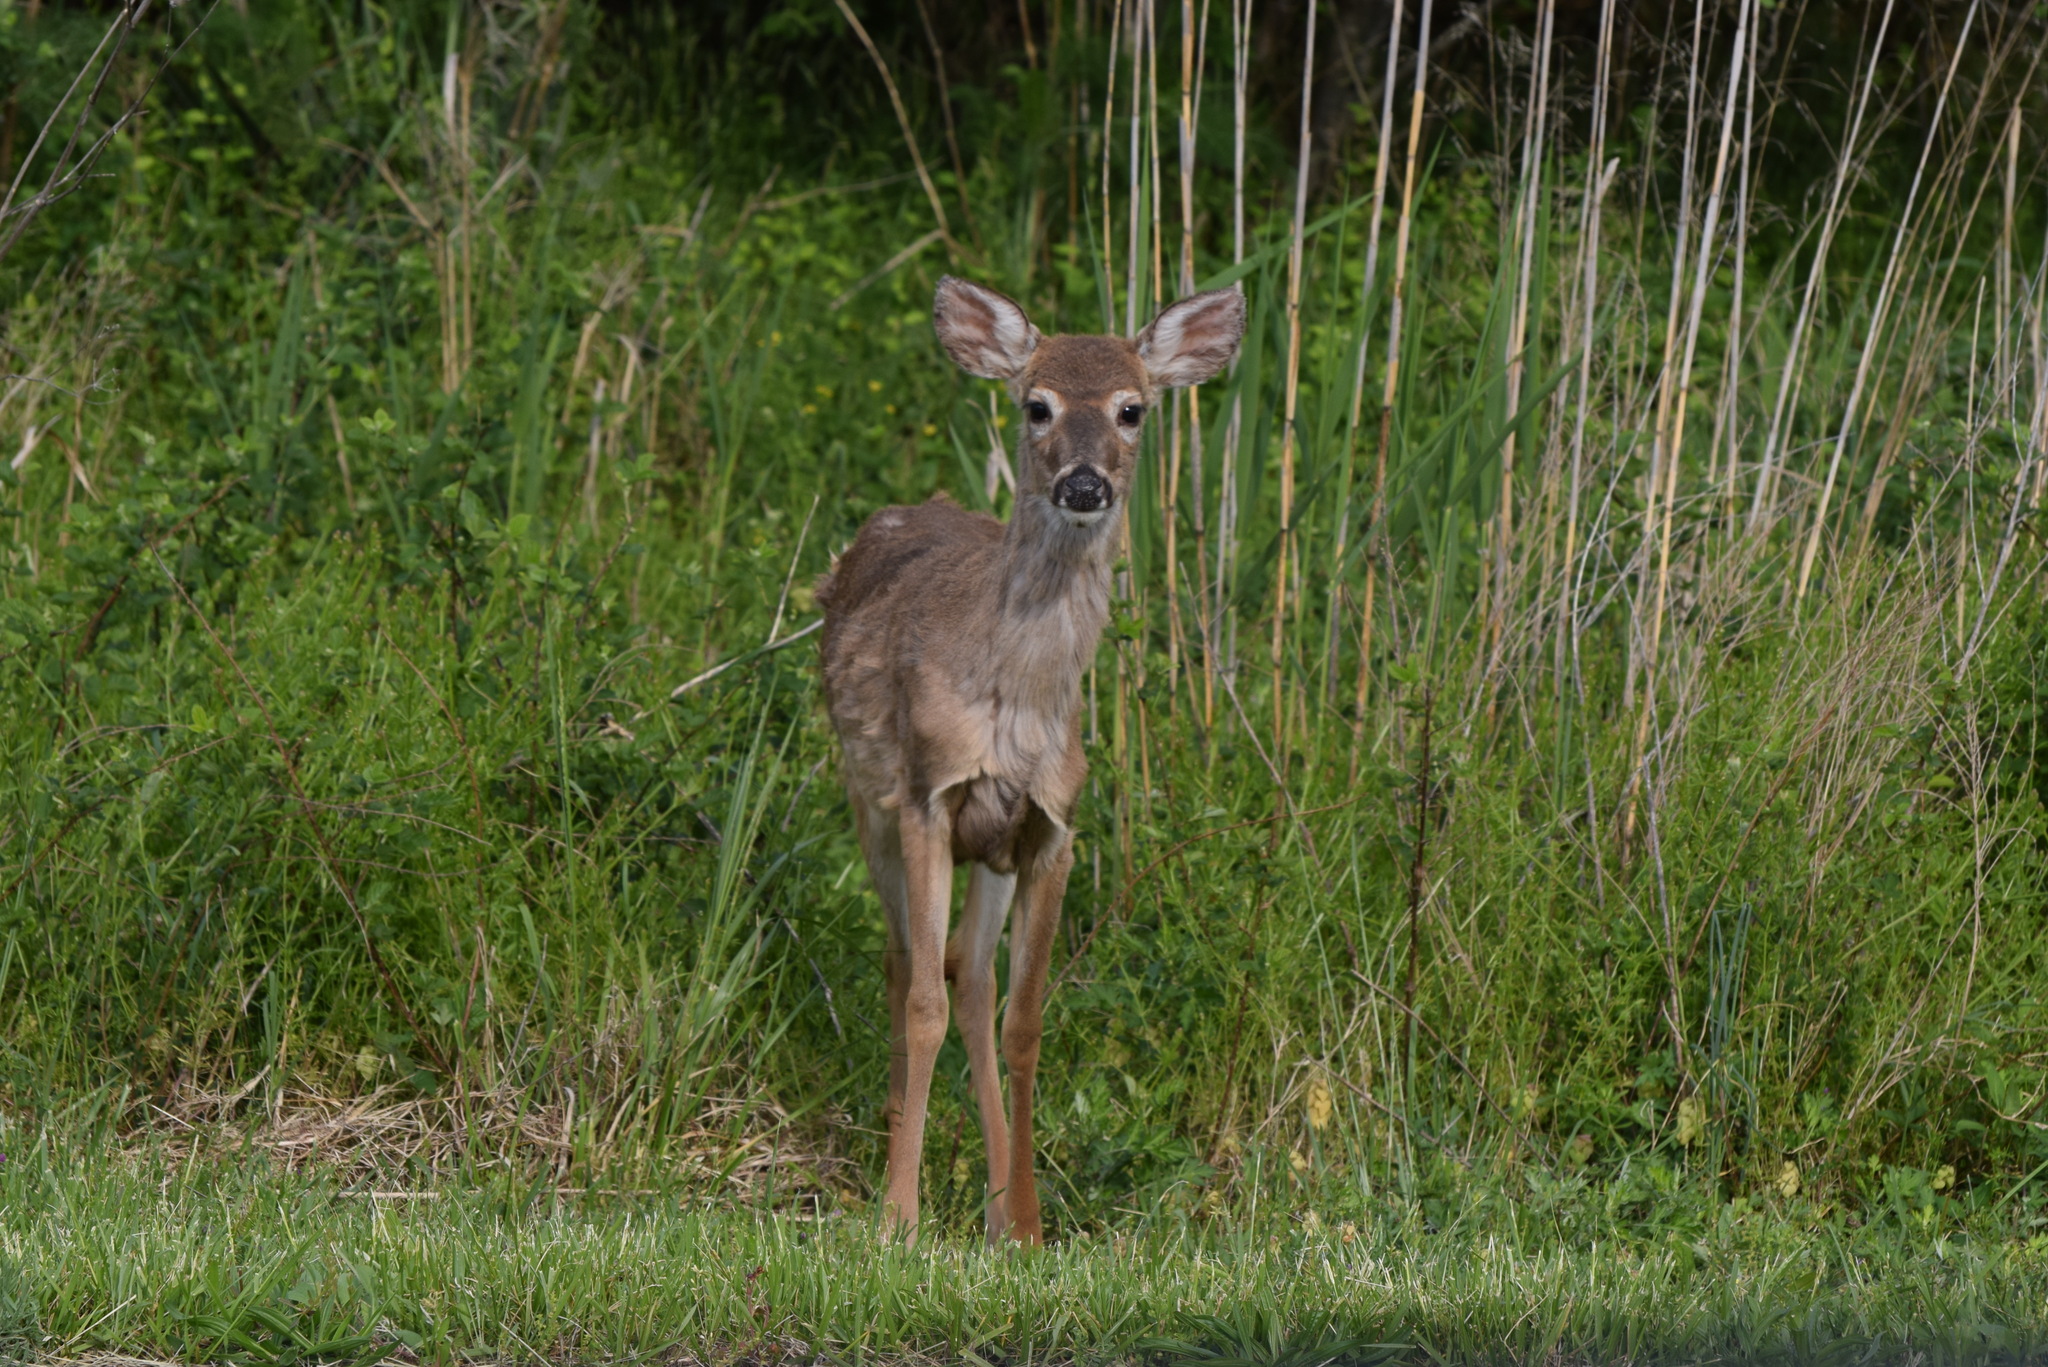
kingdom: Animalia
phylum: Chordata
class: Mammalia
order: Artiodactyla
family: Cervidae
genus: Odocoileus
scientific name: Odocoileus virginianus
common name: White-tailed deer
